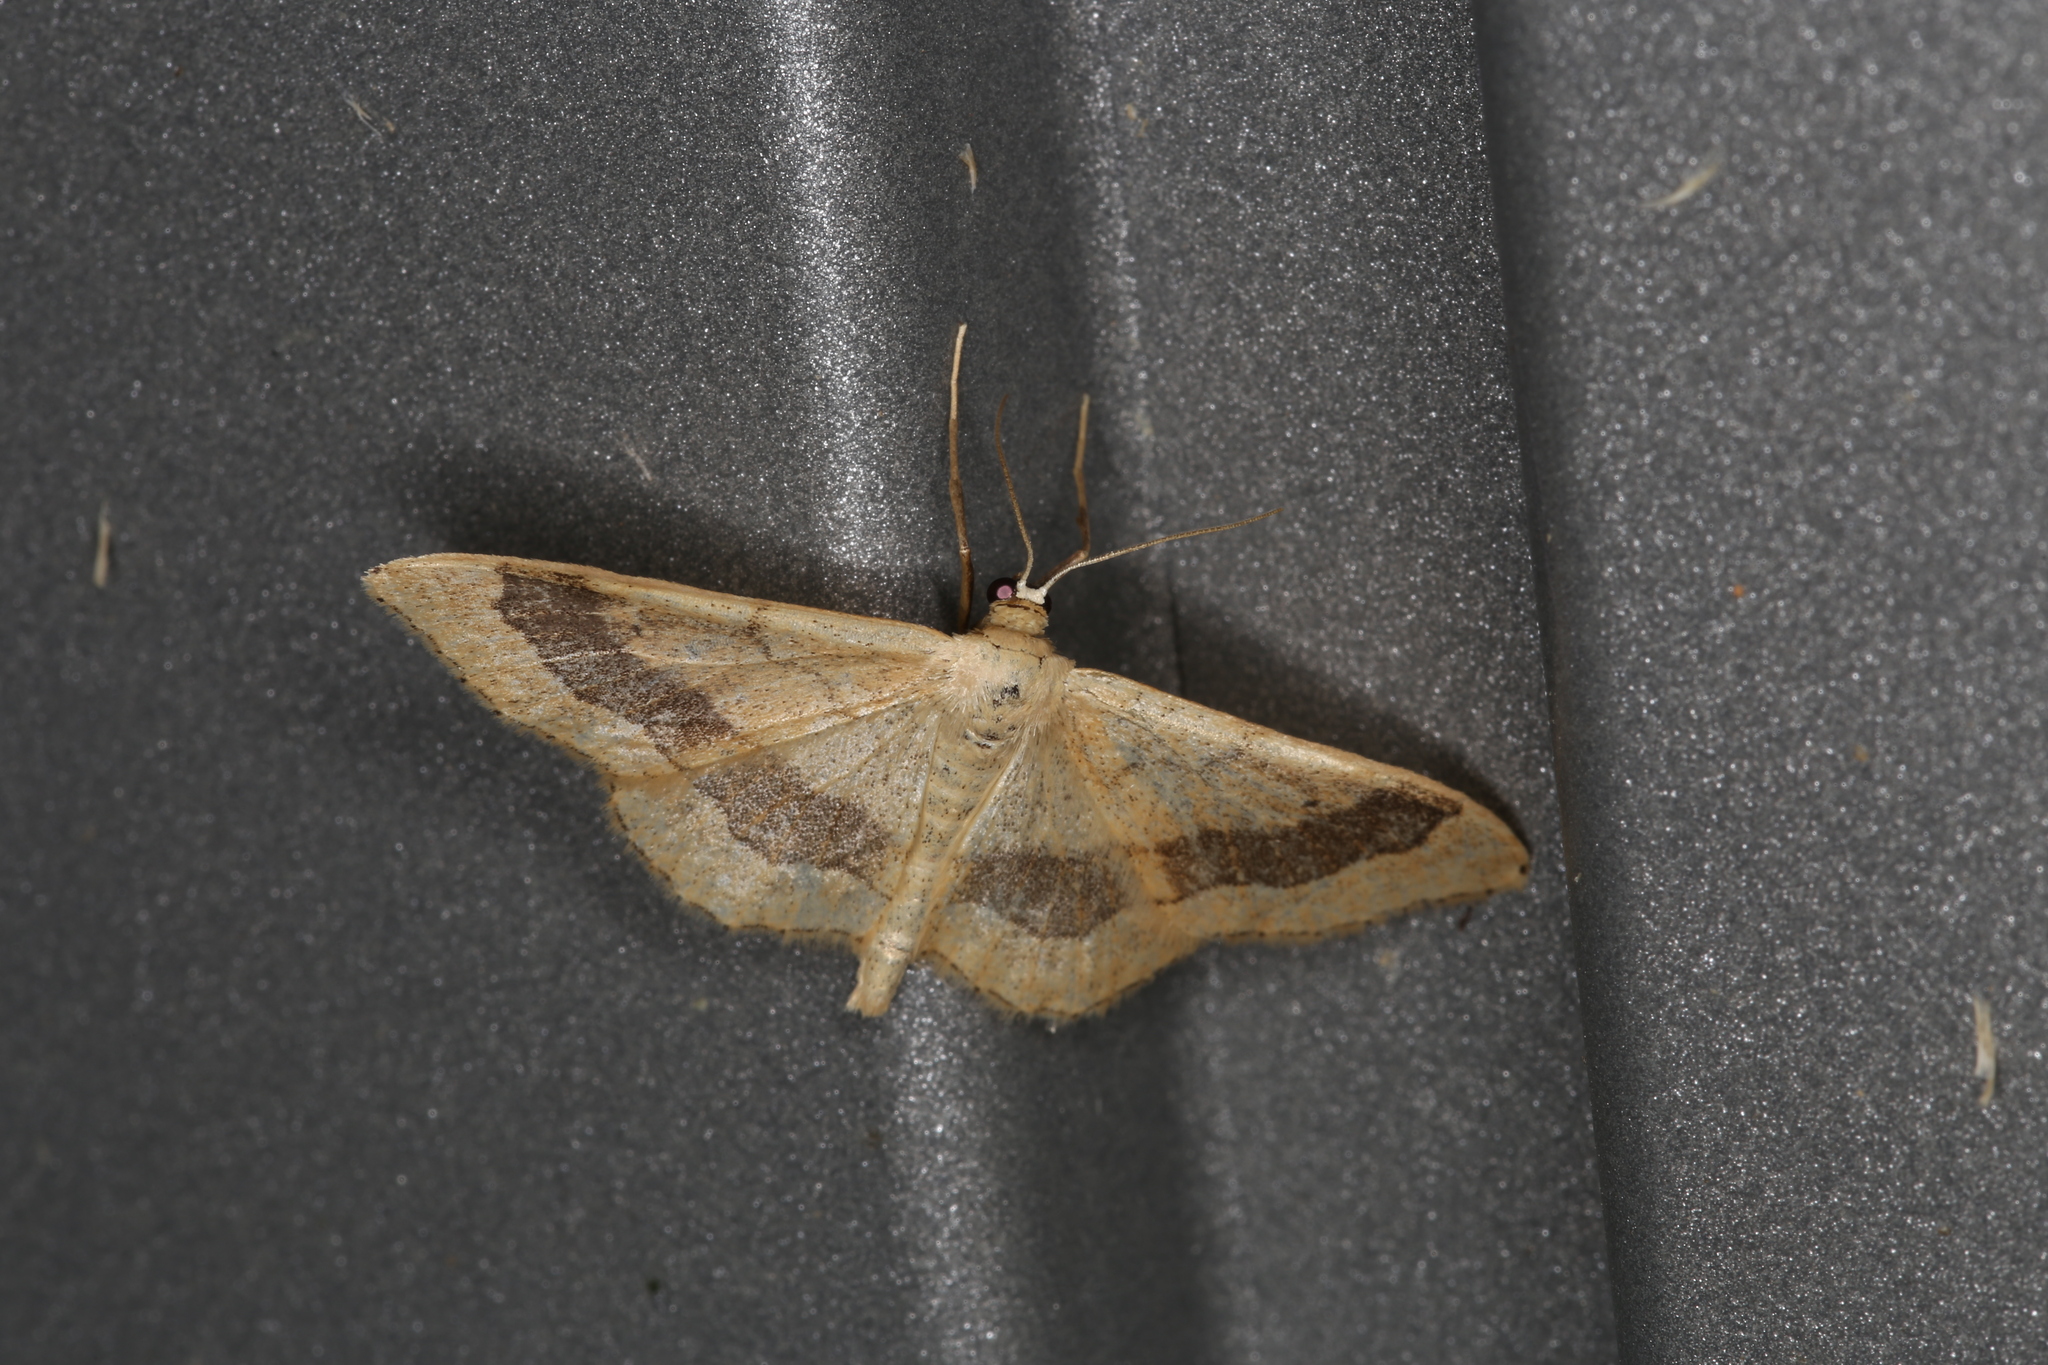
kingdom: Animalia
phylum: Arthropoda
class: Insecta
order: Lepidoptera
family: Geometridae
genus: Idaea
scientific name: Idaea aversata
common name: Riband wave
